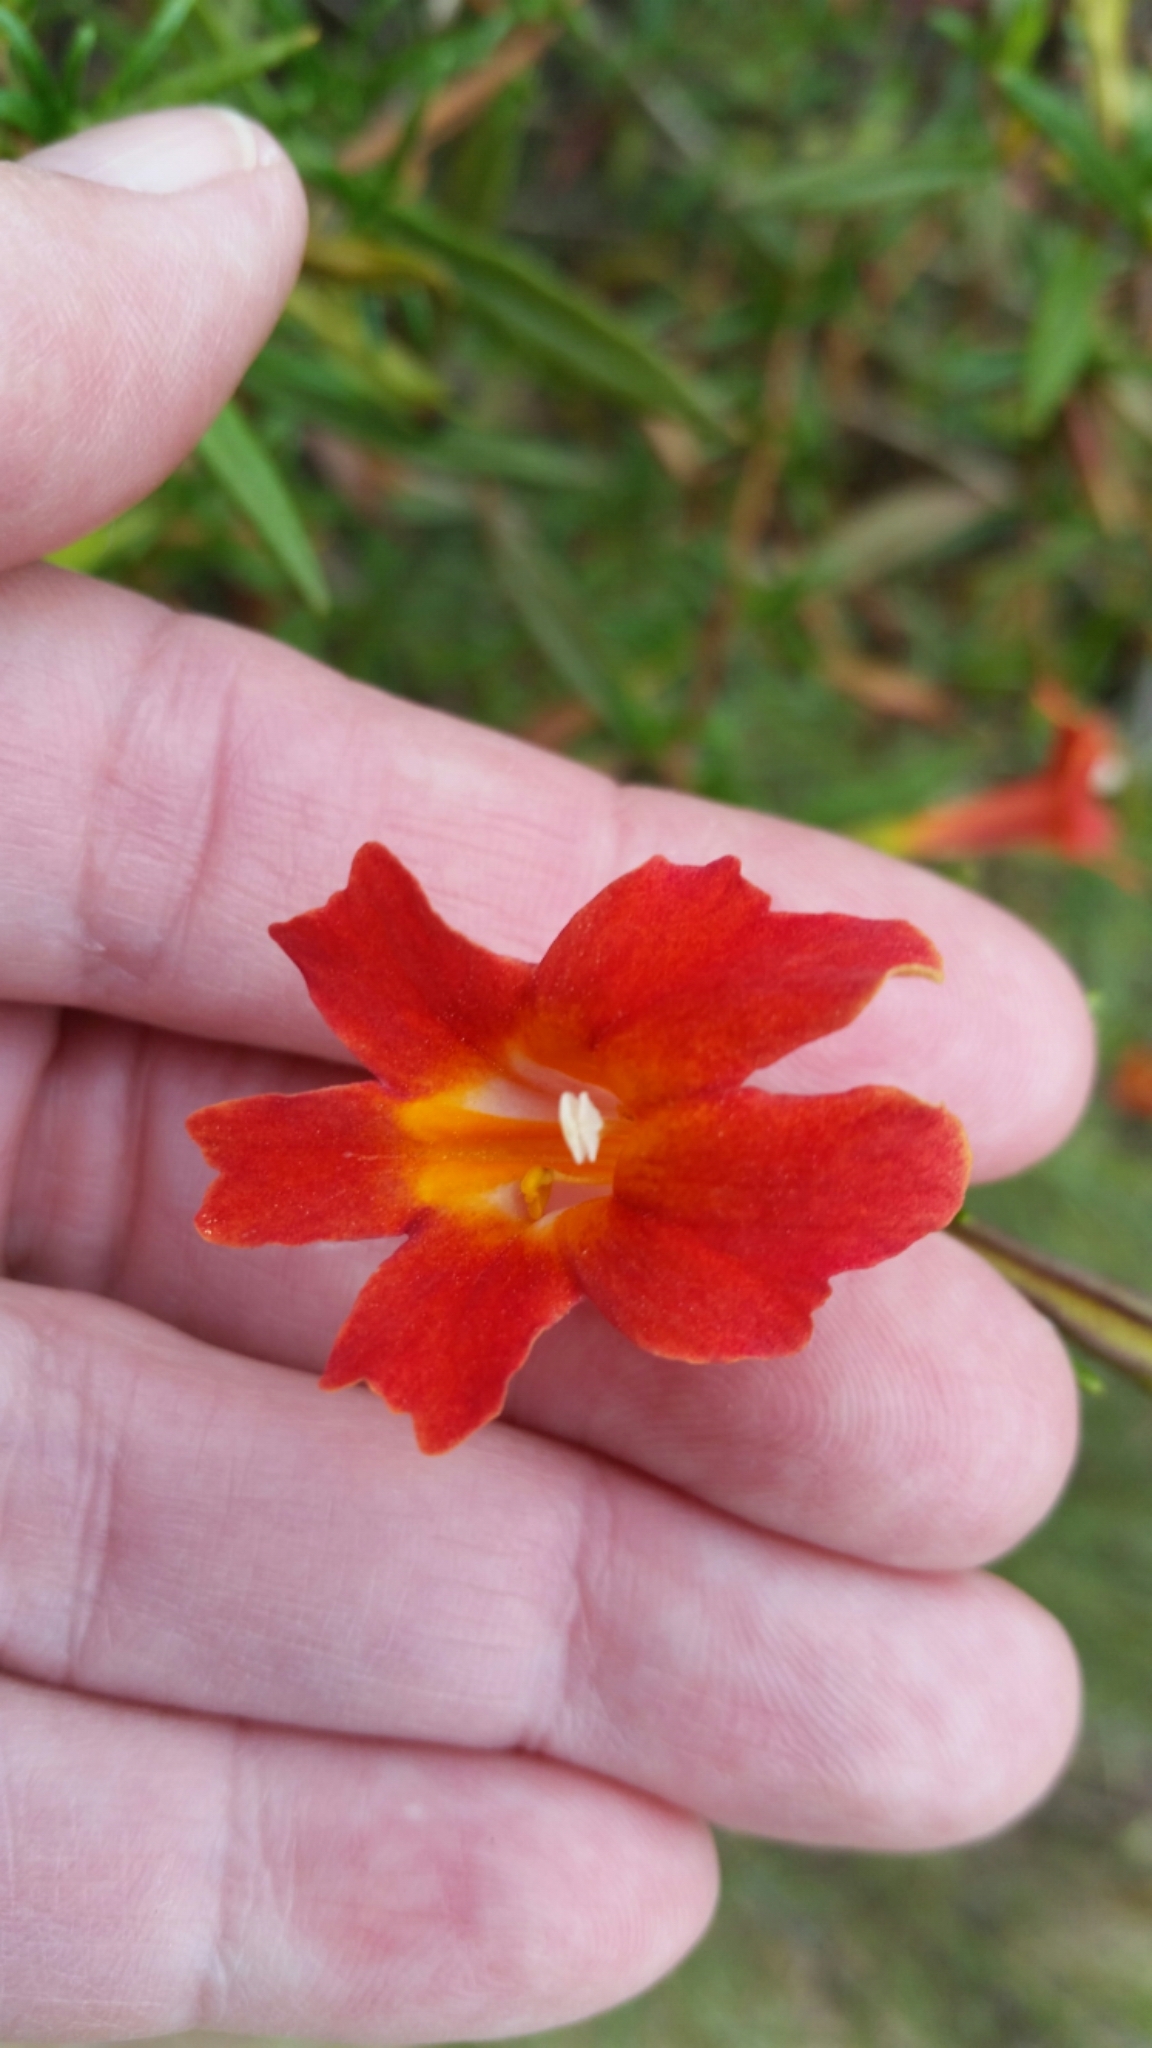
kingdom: Plantae
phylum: Tracheophyta
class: Magnoliopsida
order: Lamiales
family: Phrymaceae
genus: Diplacus
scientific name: Diplacus puniceus
